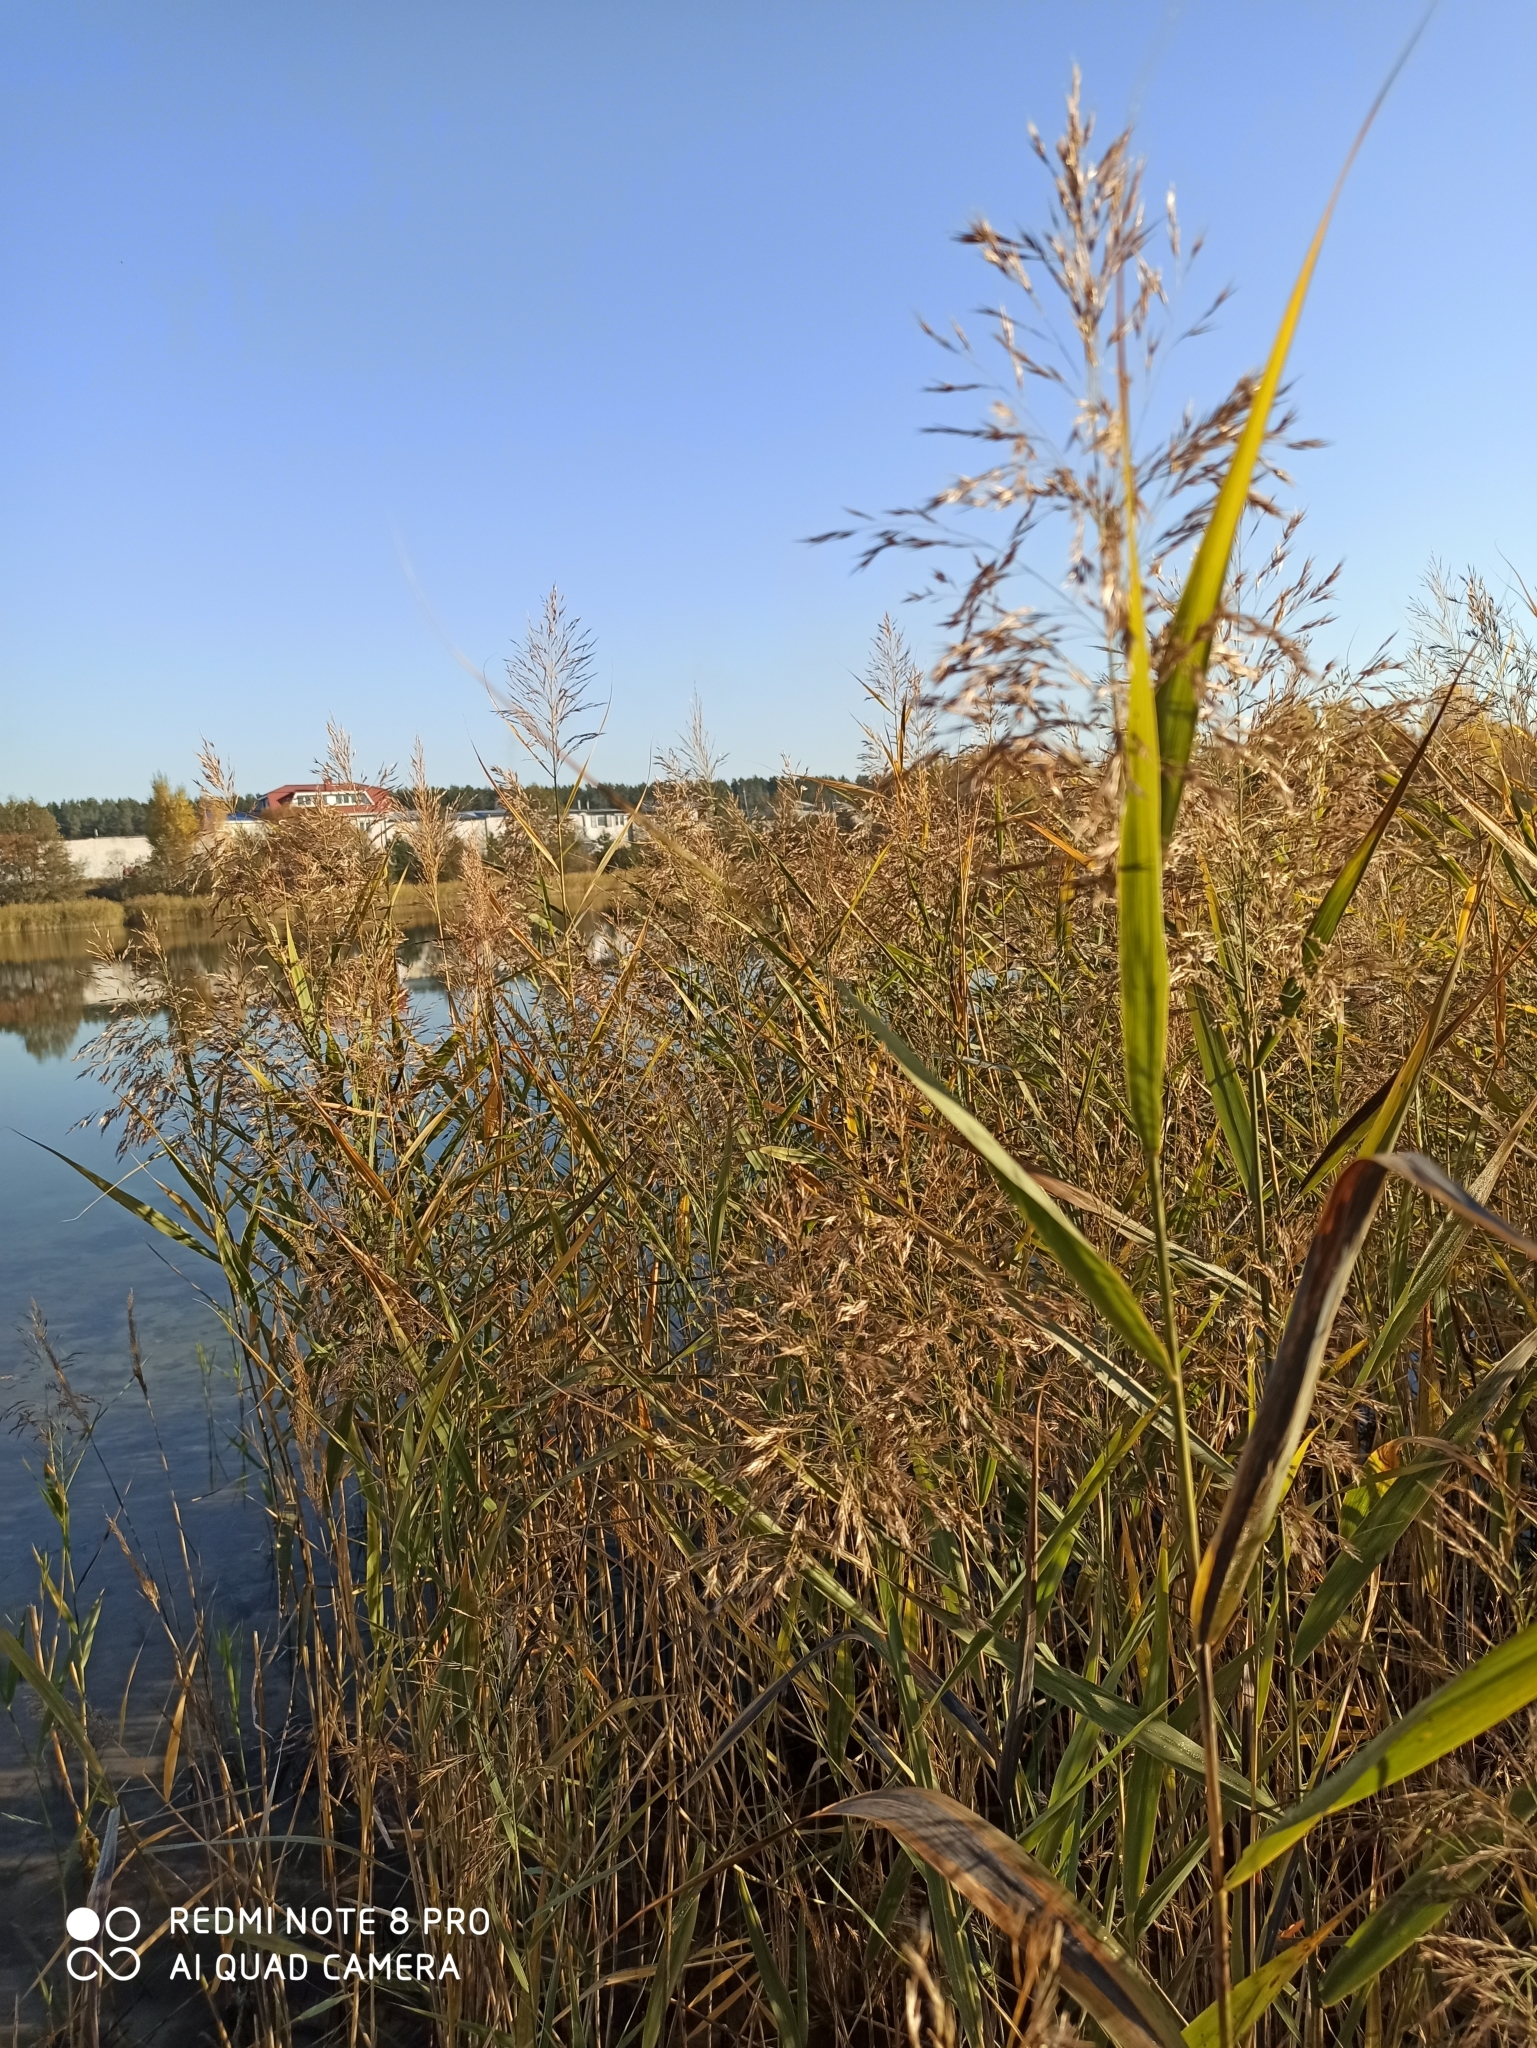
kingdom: Plantae
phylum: Tracheophyta
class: Liliopsida
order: Poales
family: Poaceae
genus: Phragmites
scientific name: Phragmites australis
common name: Common reed
